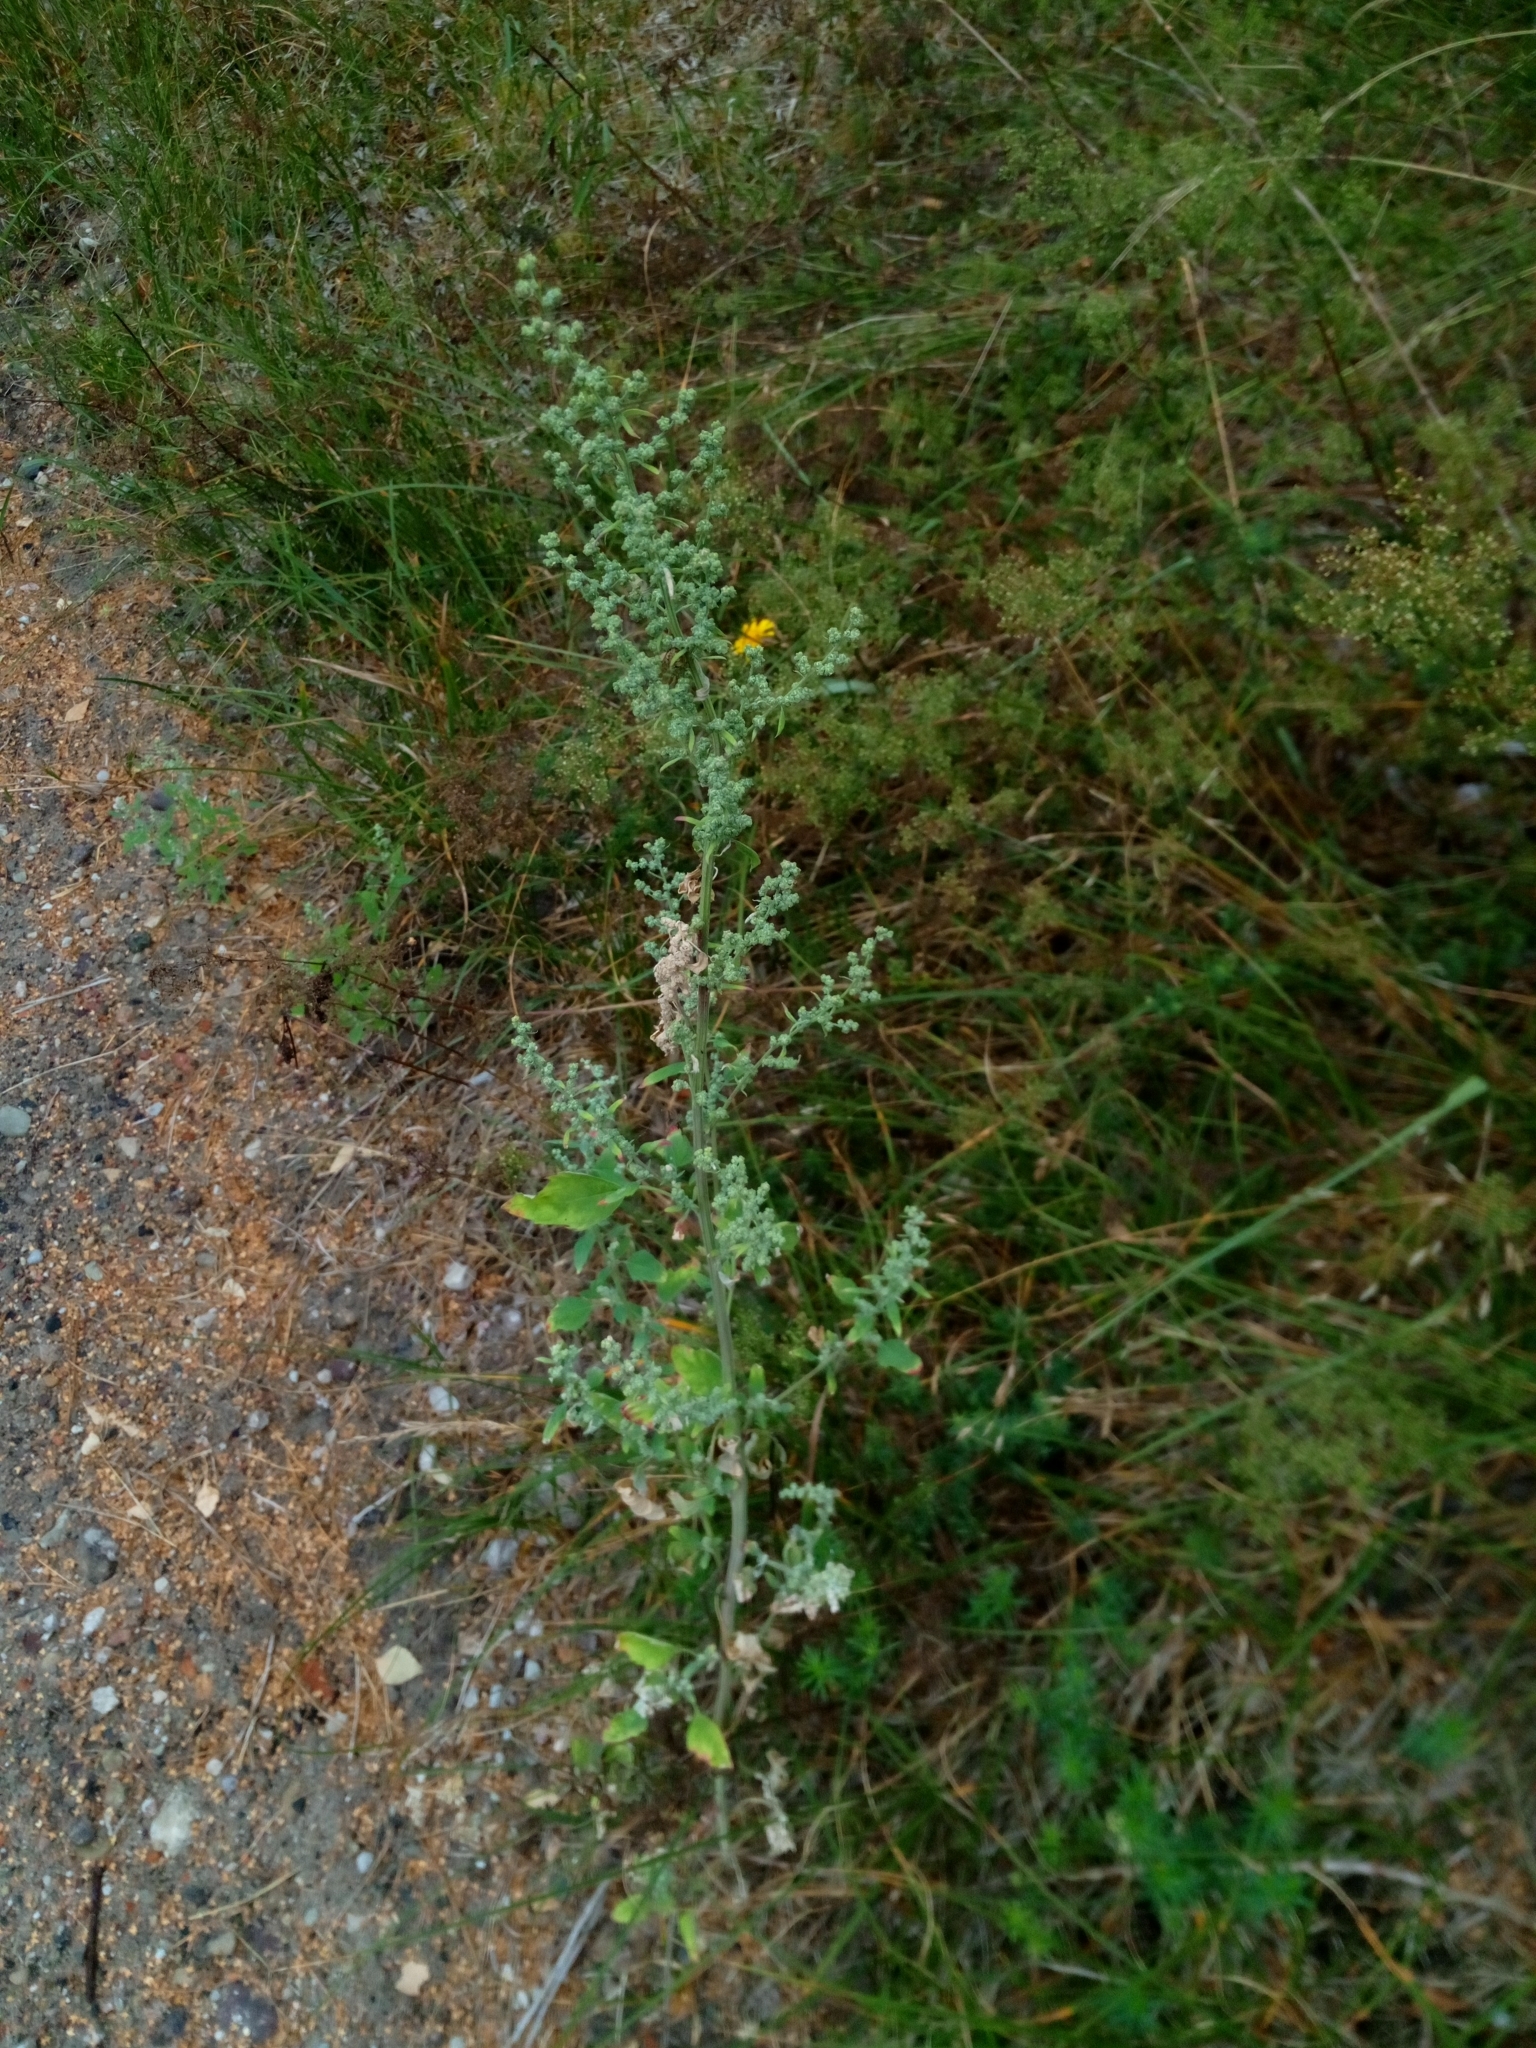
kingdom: Plantae
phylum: Tracheophyta
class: Magnoliopsida
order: Caryophyllales
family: Amaranthaceae
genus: Chenopodium
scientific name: Chenopodium album
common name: Fat-hen
